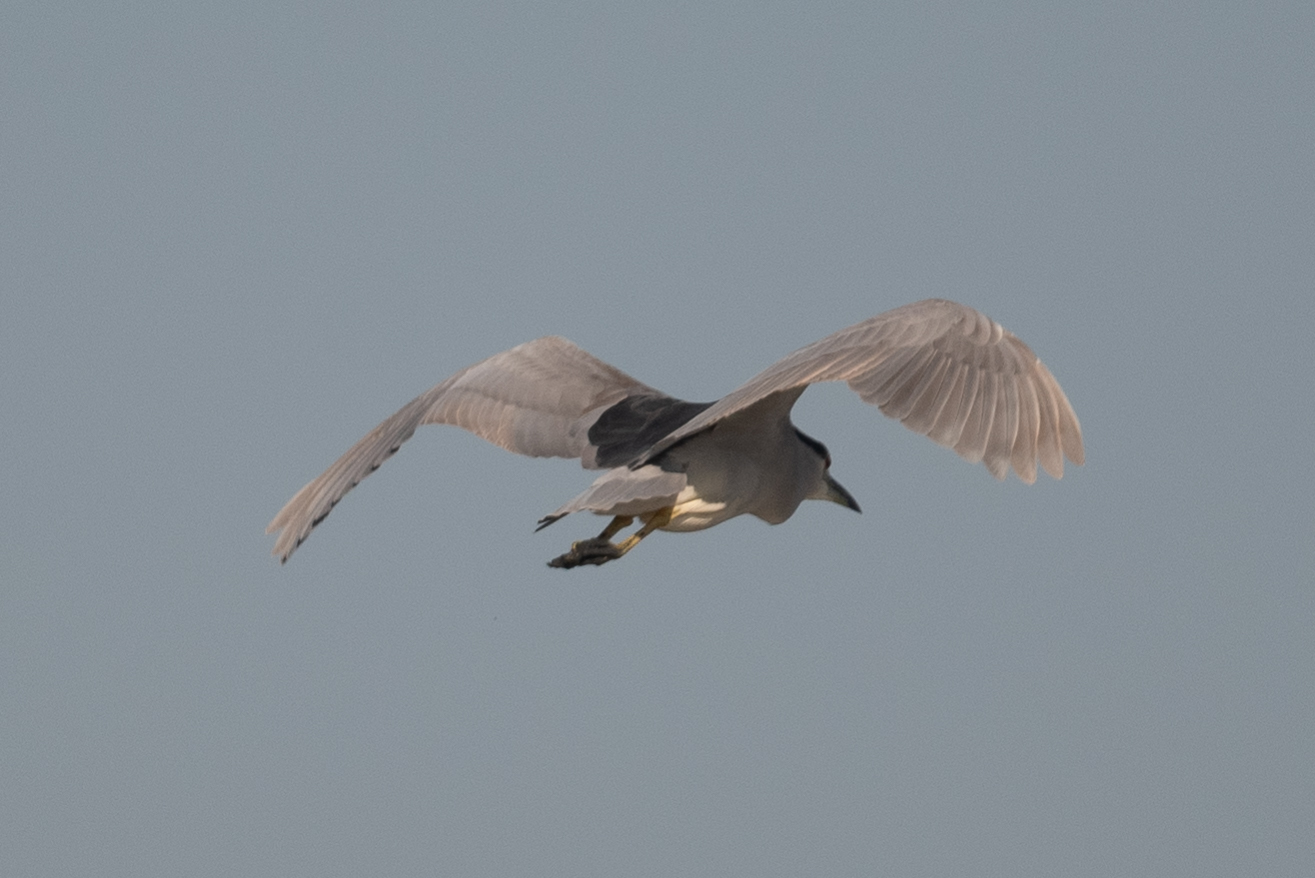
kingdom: Animalia
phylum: Chordata
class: Aves
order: Pelecaniformes
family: Ardeidae
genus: Nycticorax
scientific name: Nycticorax nycticorax
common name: Black-crowned night heron
